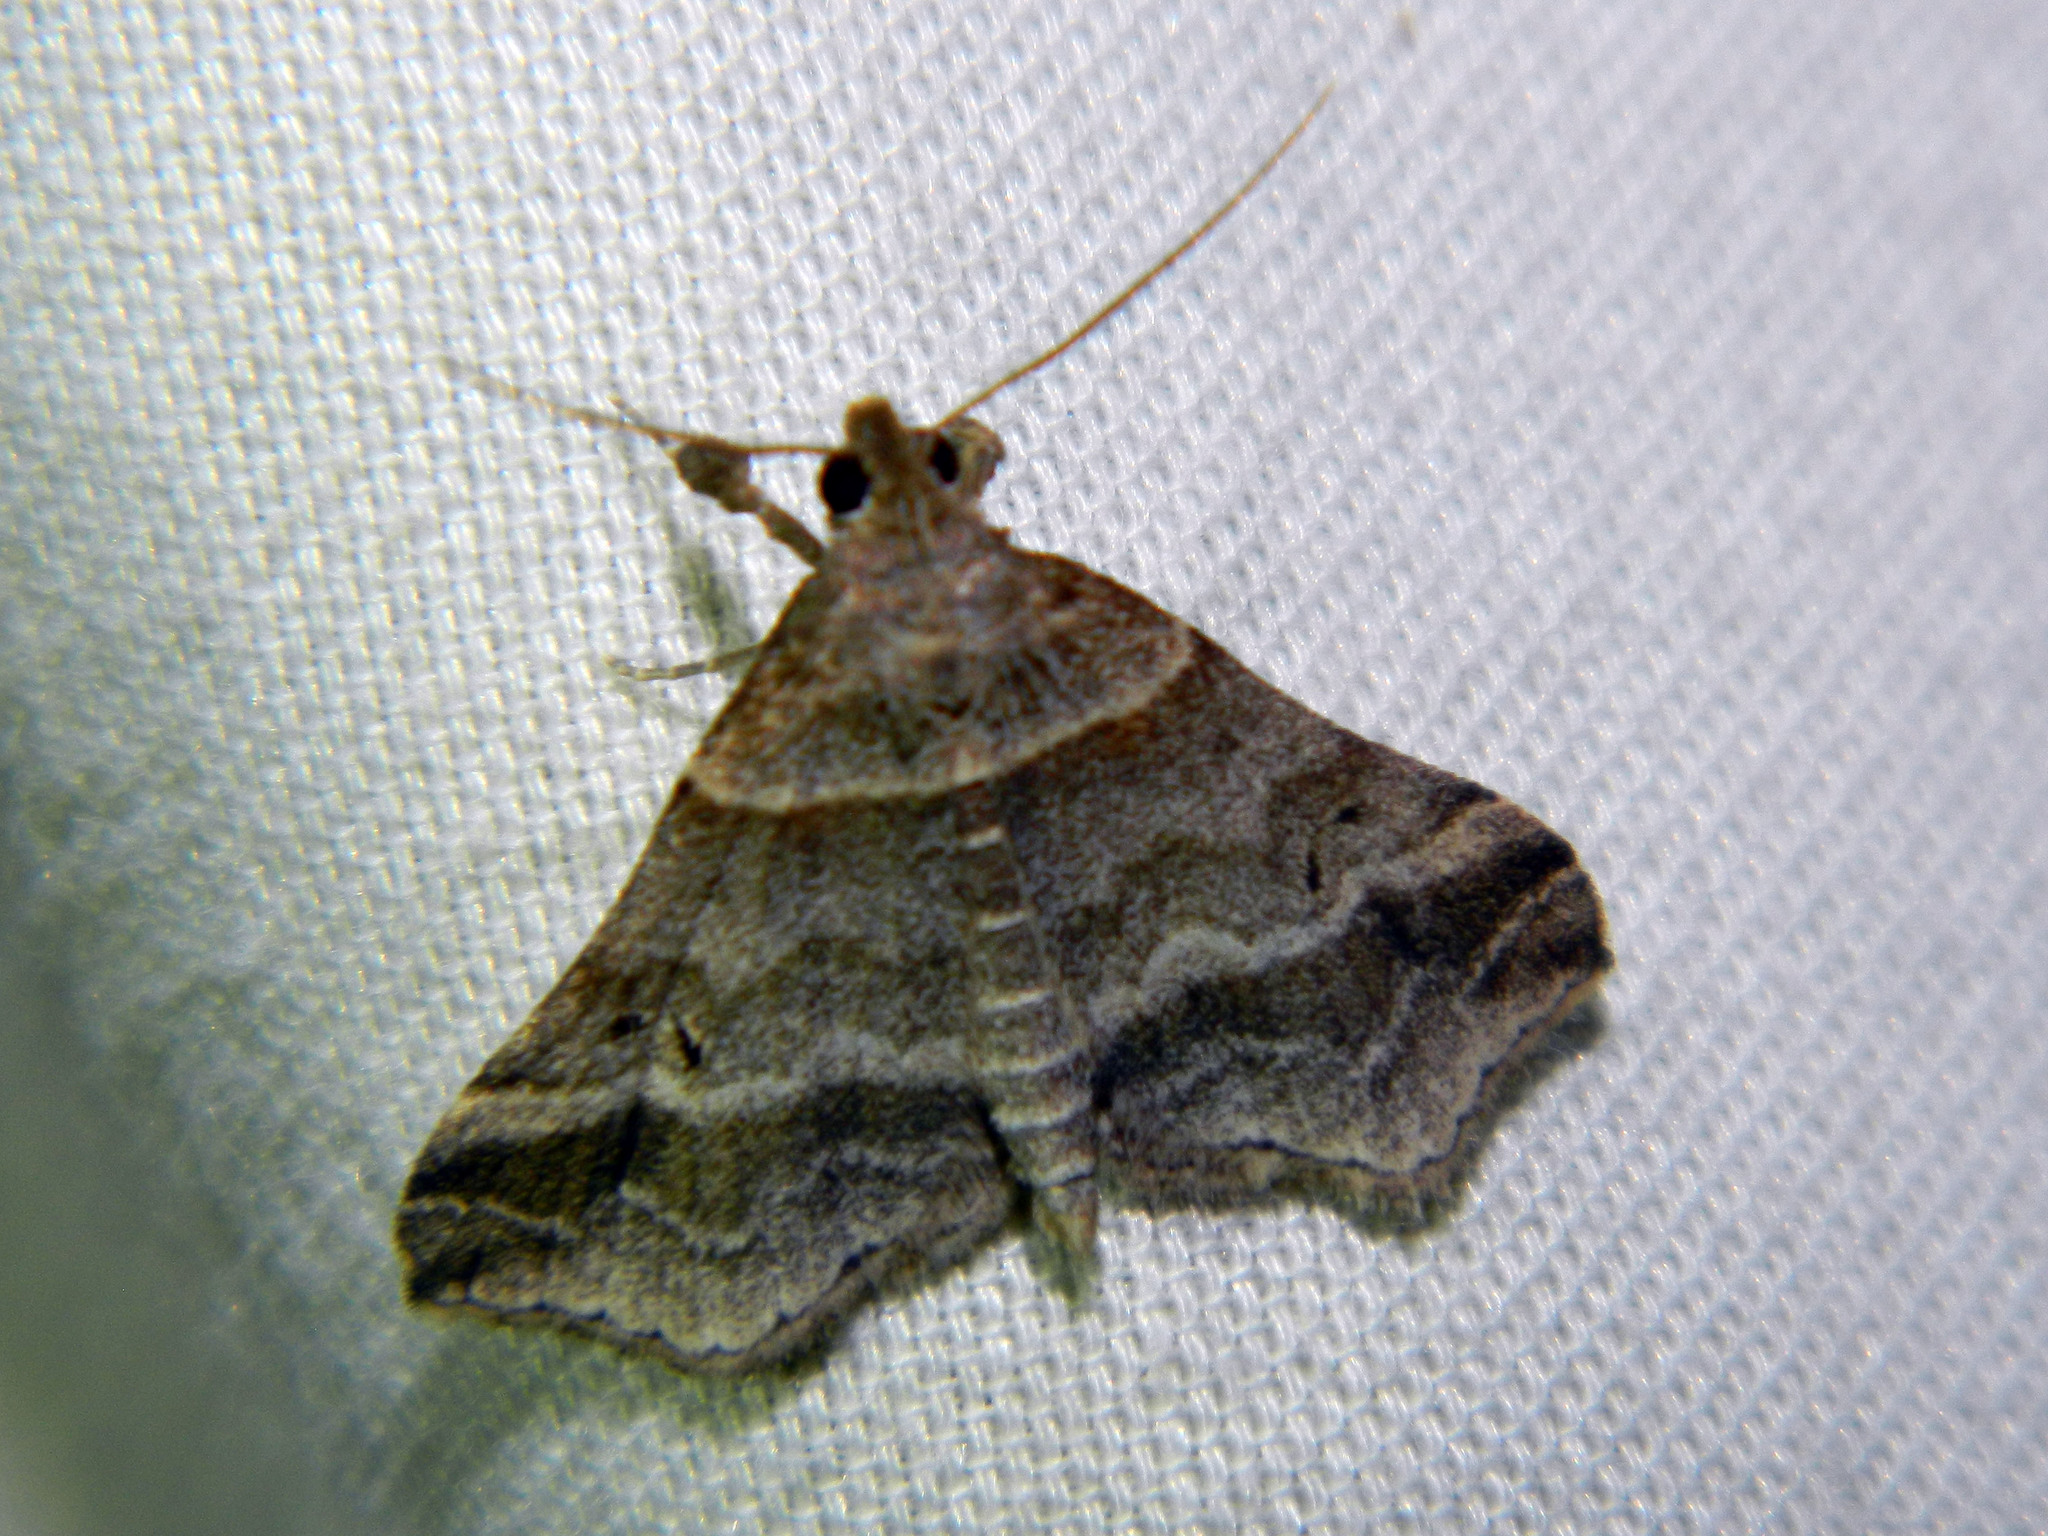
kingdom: Animalia
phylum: Arthropoda
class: Insecta
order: Lepidoptera
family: Erebidae
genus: Phaeolita
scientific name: Phaeolita pyramusalis
